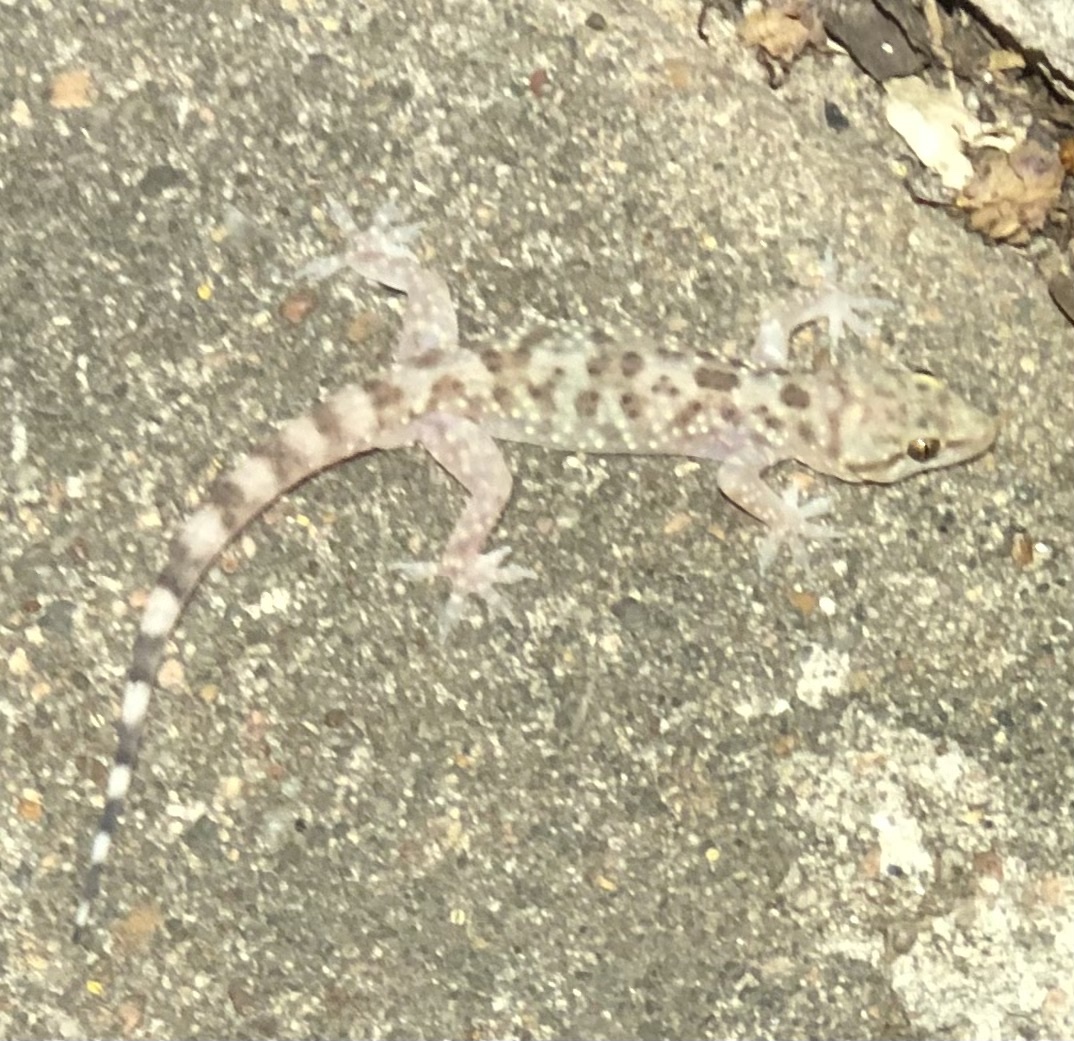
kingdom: Animalia
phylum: Chordata
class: Squamata
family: Gekkonidae
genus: Hemidactylus
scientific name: Hemidactylus turcicus
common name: Turkish gecko
